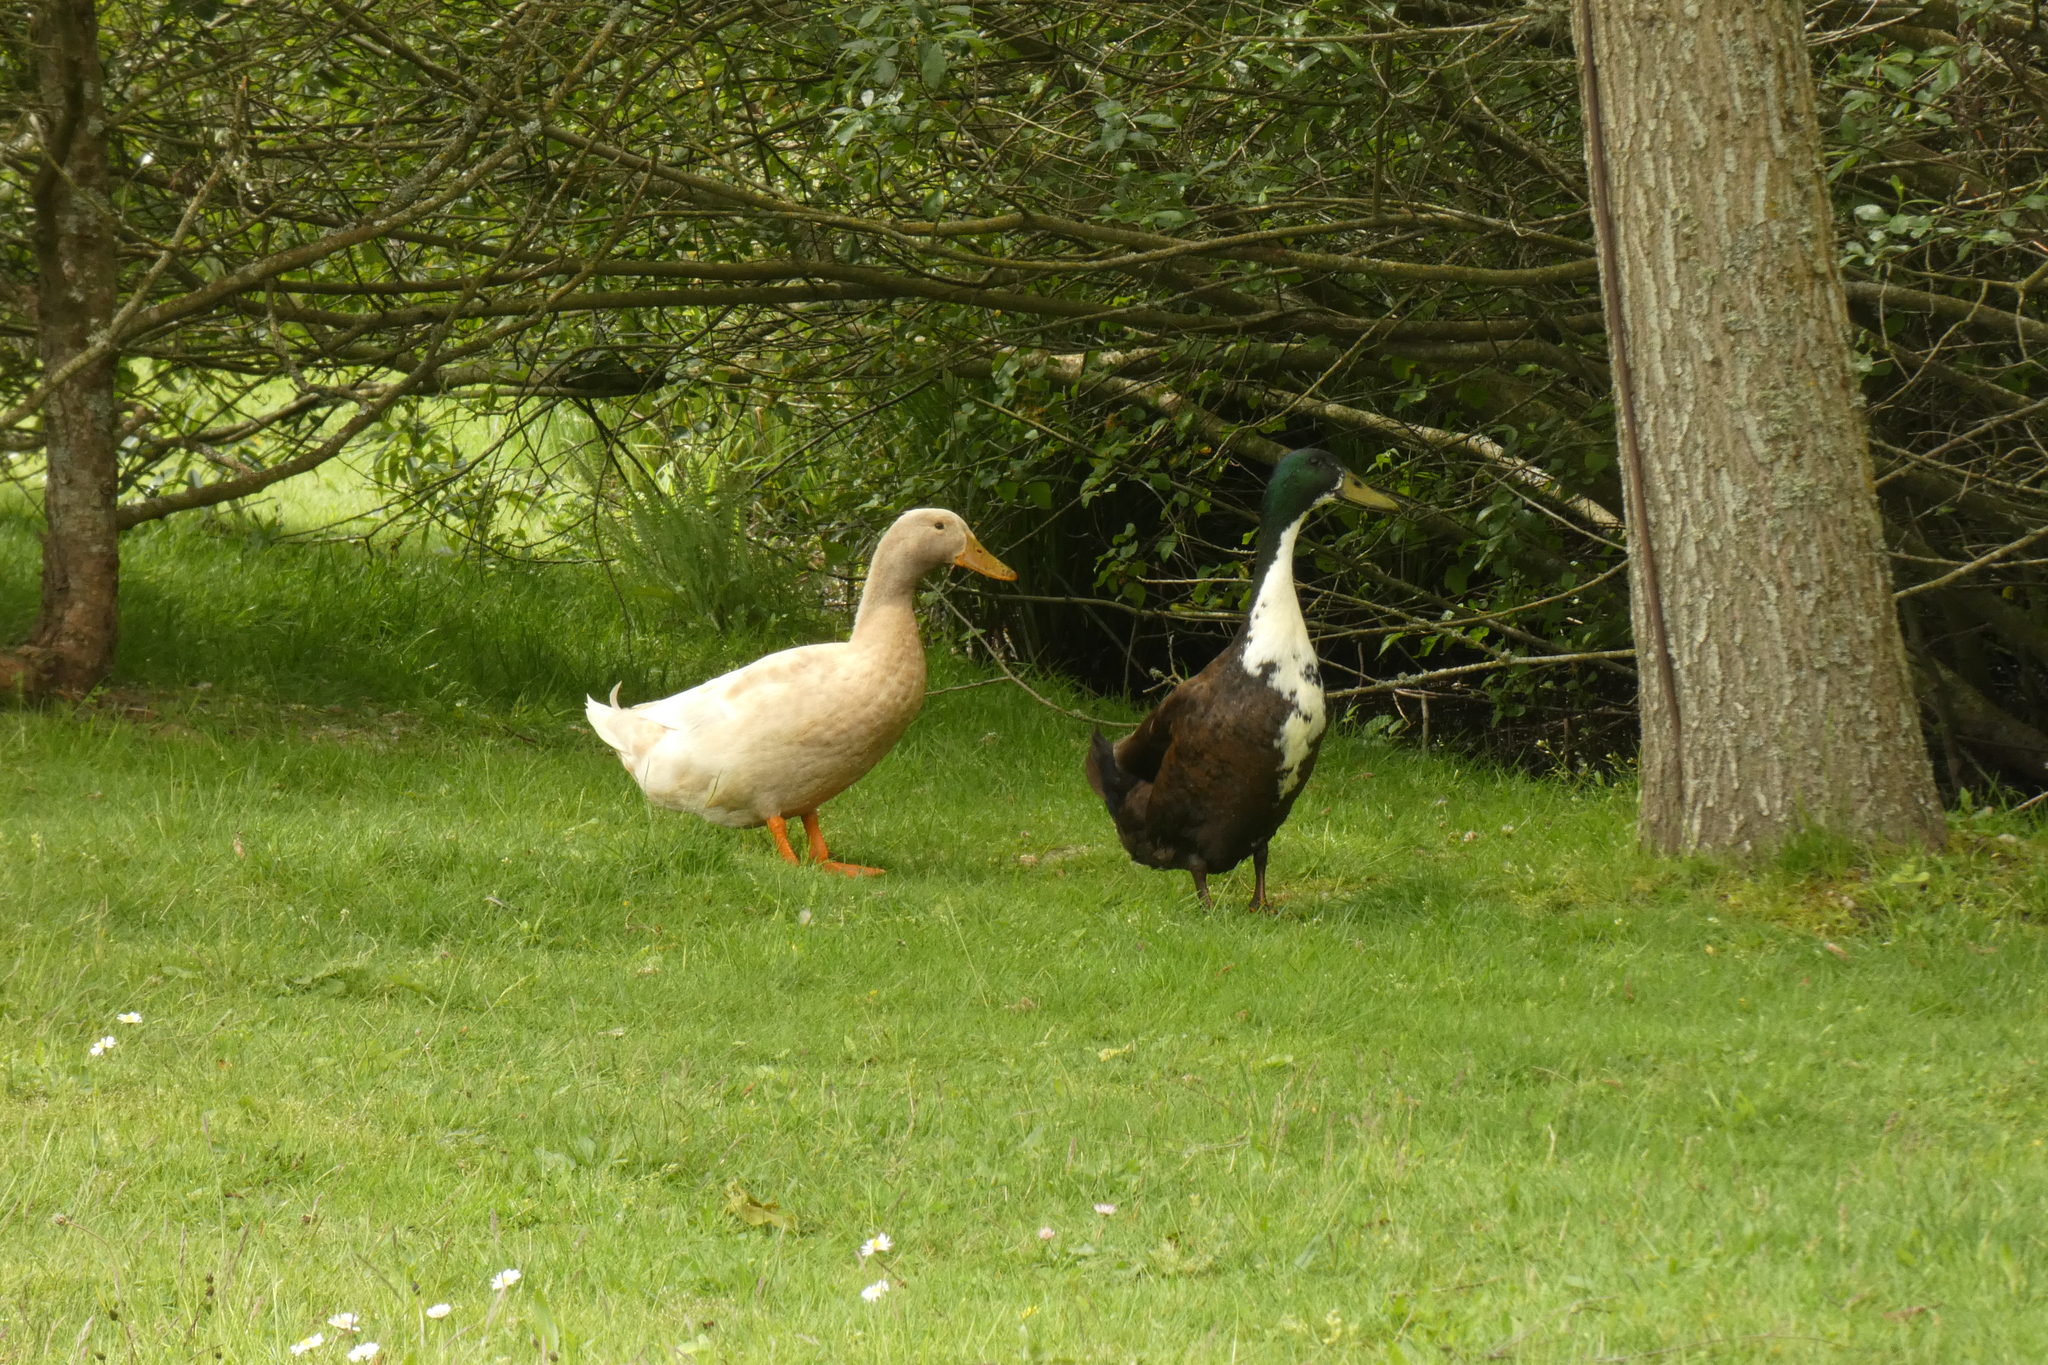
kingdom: Animalia
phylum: Chordata
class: Aves
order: Anseriformes
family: Anatidae
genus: Anas
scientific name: Anas platyrhynchos
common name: Mallard
